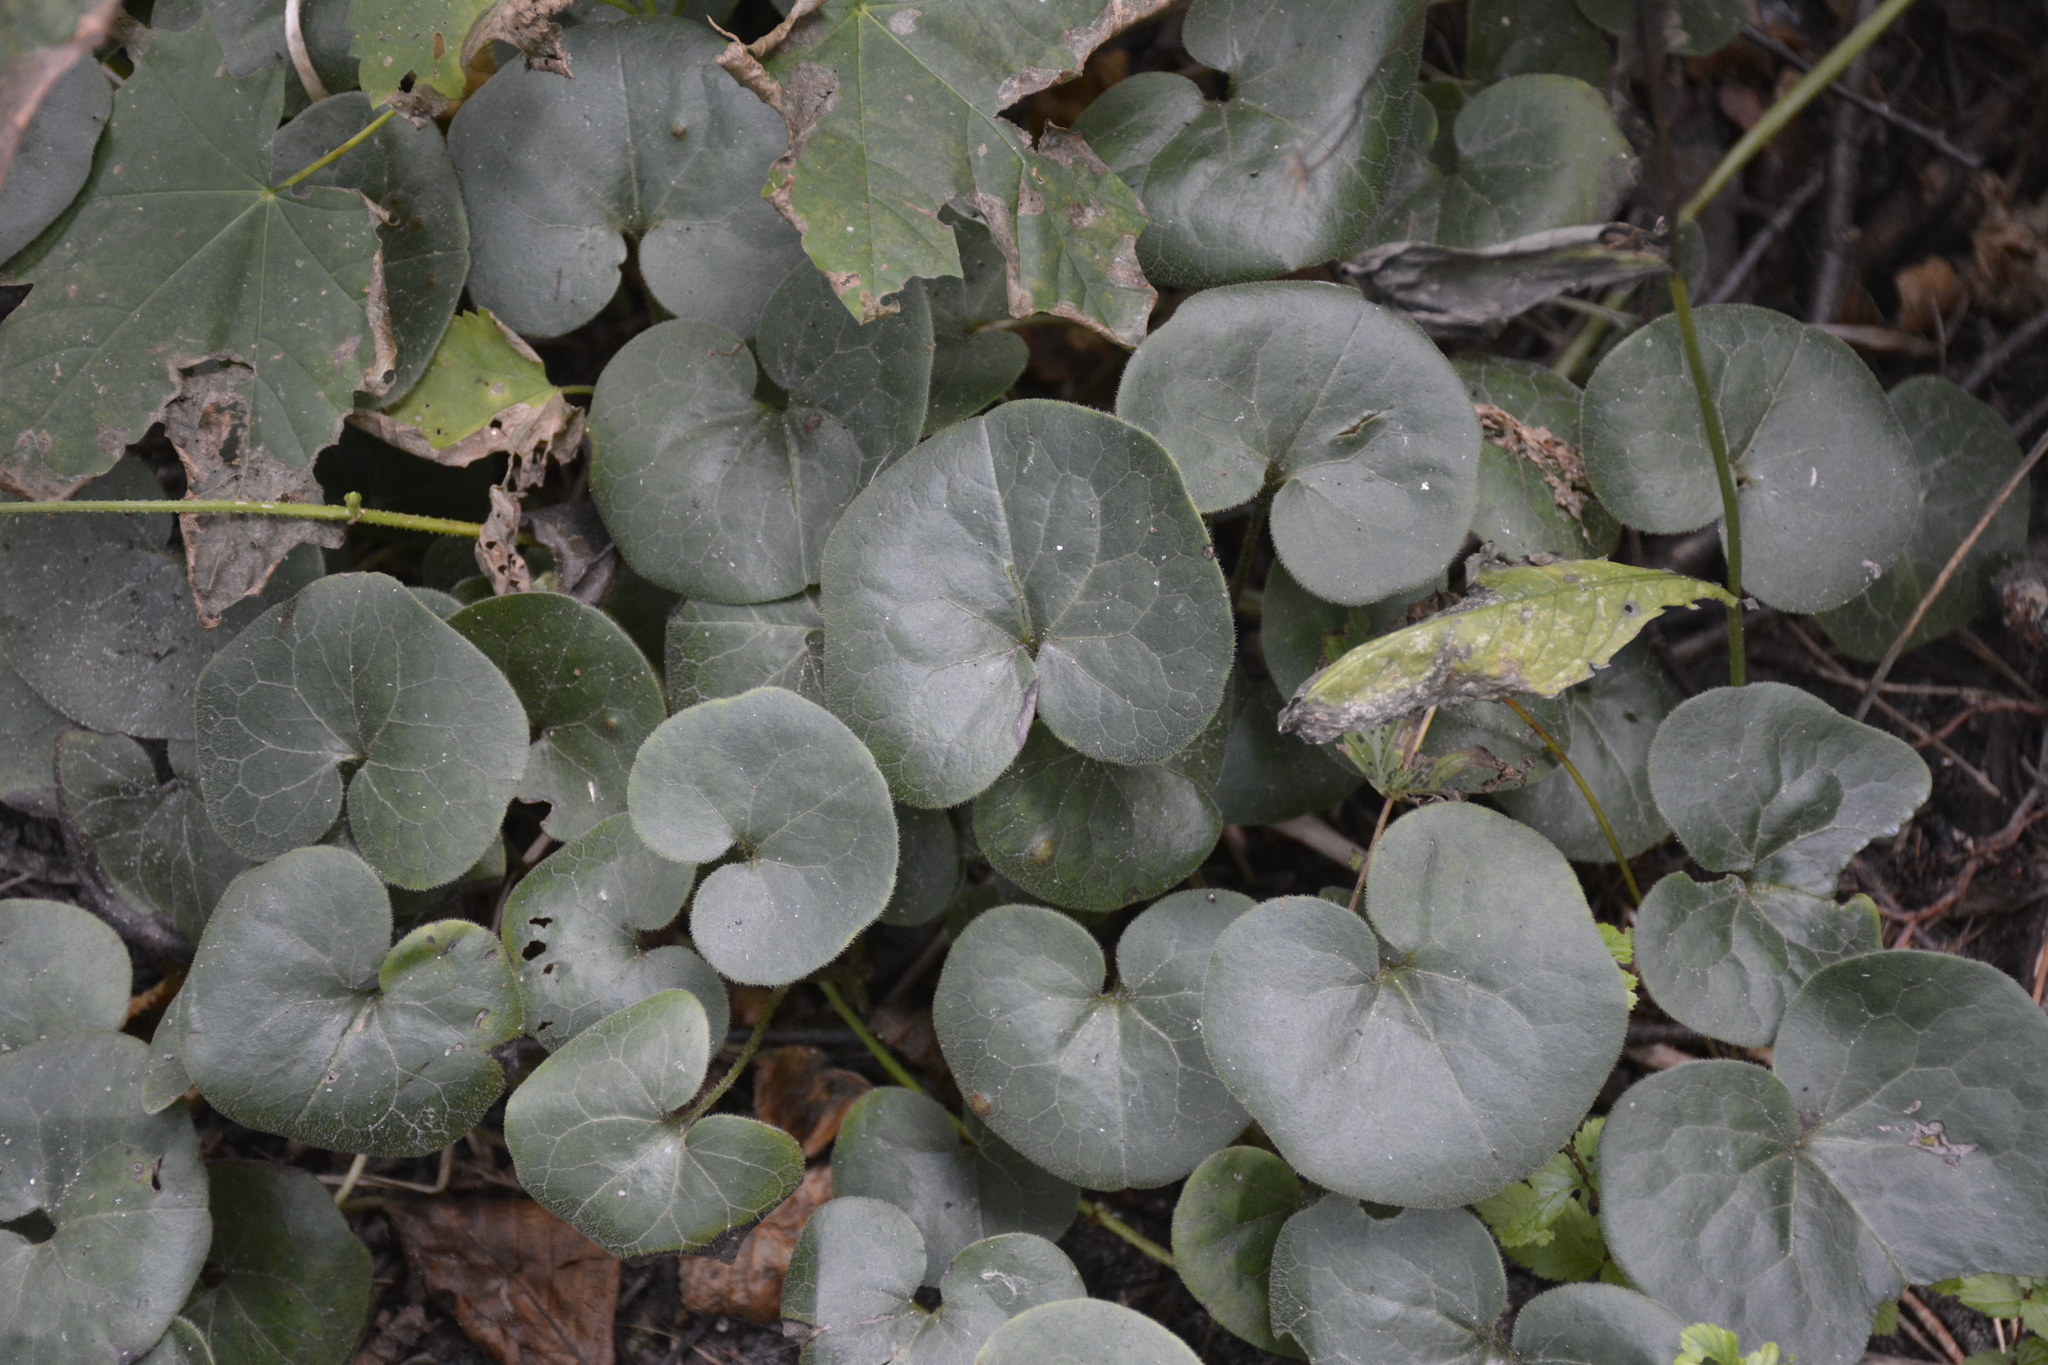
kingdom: Plantae
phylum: Tracheophyta
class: Magnoliopsida
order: Piperales
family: Aristolochiaceae
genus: Asarum
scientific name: Asarum europaeum
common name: Asarabacca
